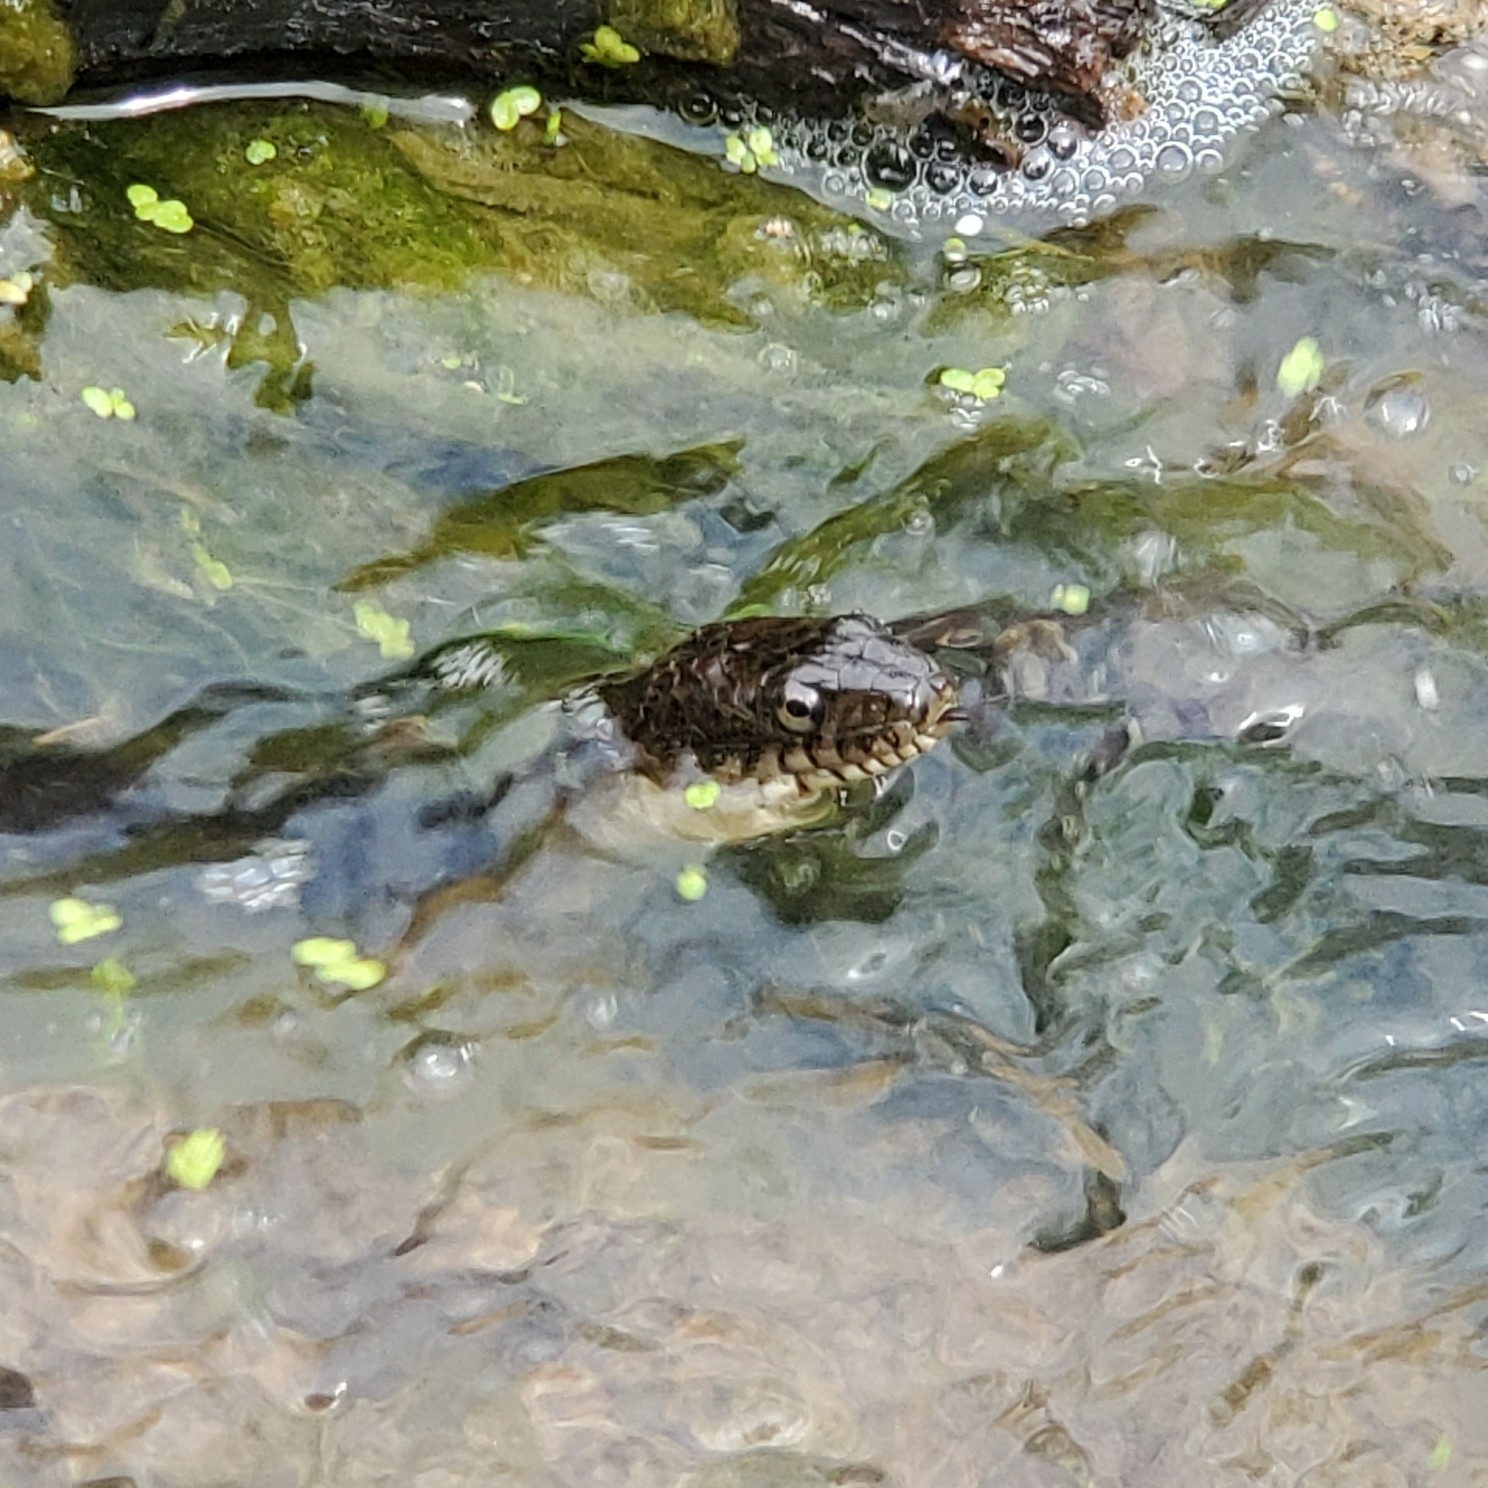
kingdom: Animalia
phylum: Chordata
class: Squamata
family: Colubridae
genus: Nerodia
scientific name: Nerodia sipedon
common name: Northern water snake
